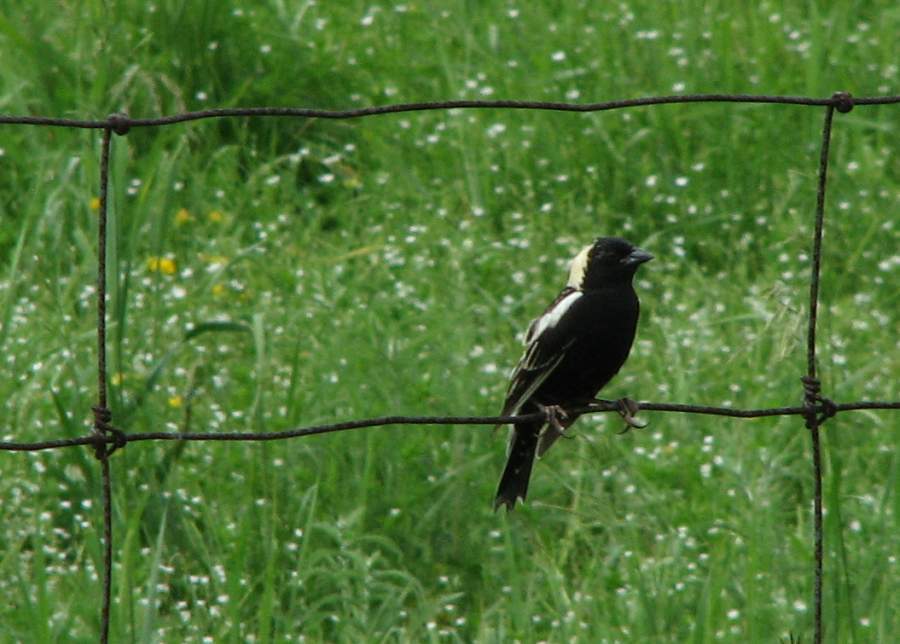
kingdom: Animalia
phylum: Chordata
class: Aves
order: Passeriformes
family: Icteridae
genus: Dolichonyx
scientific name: Dolichonyx oryzivorus
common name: Bobolink
